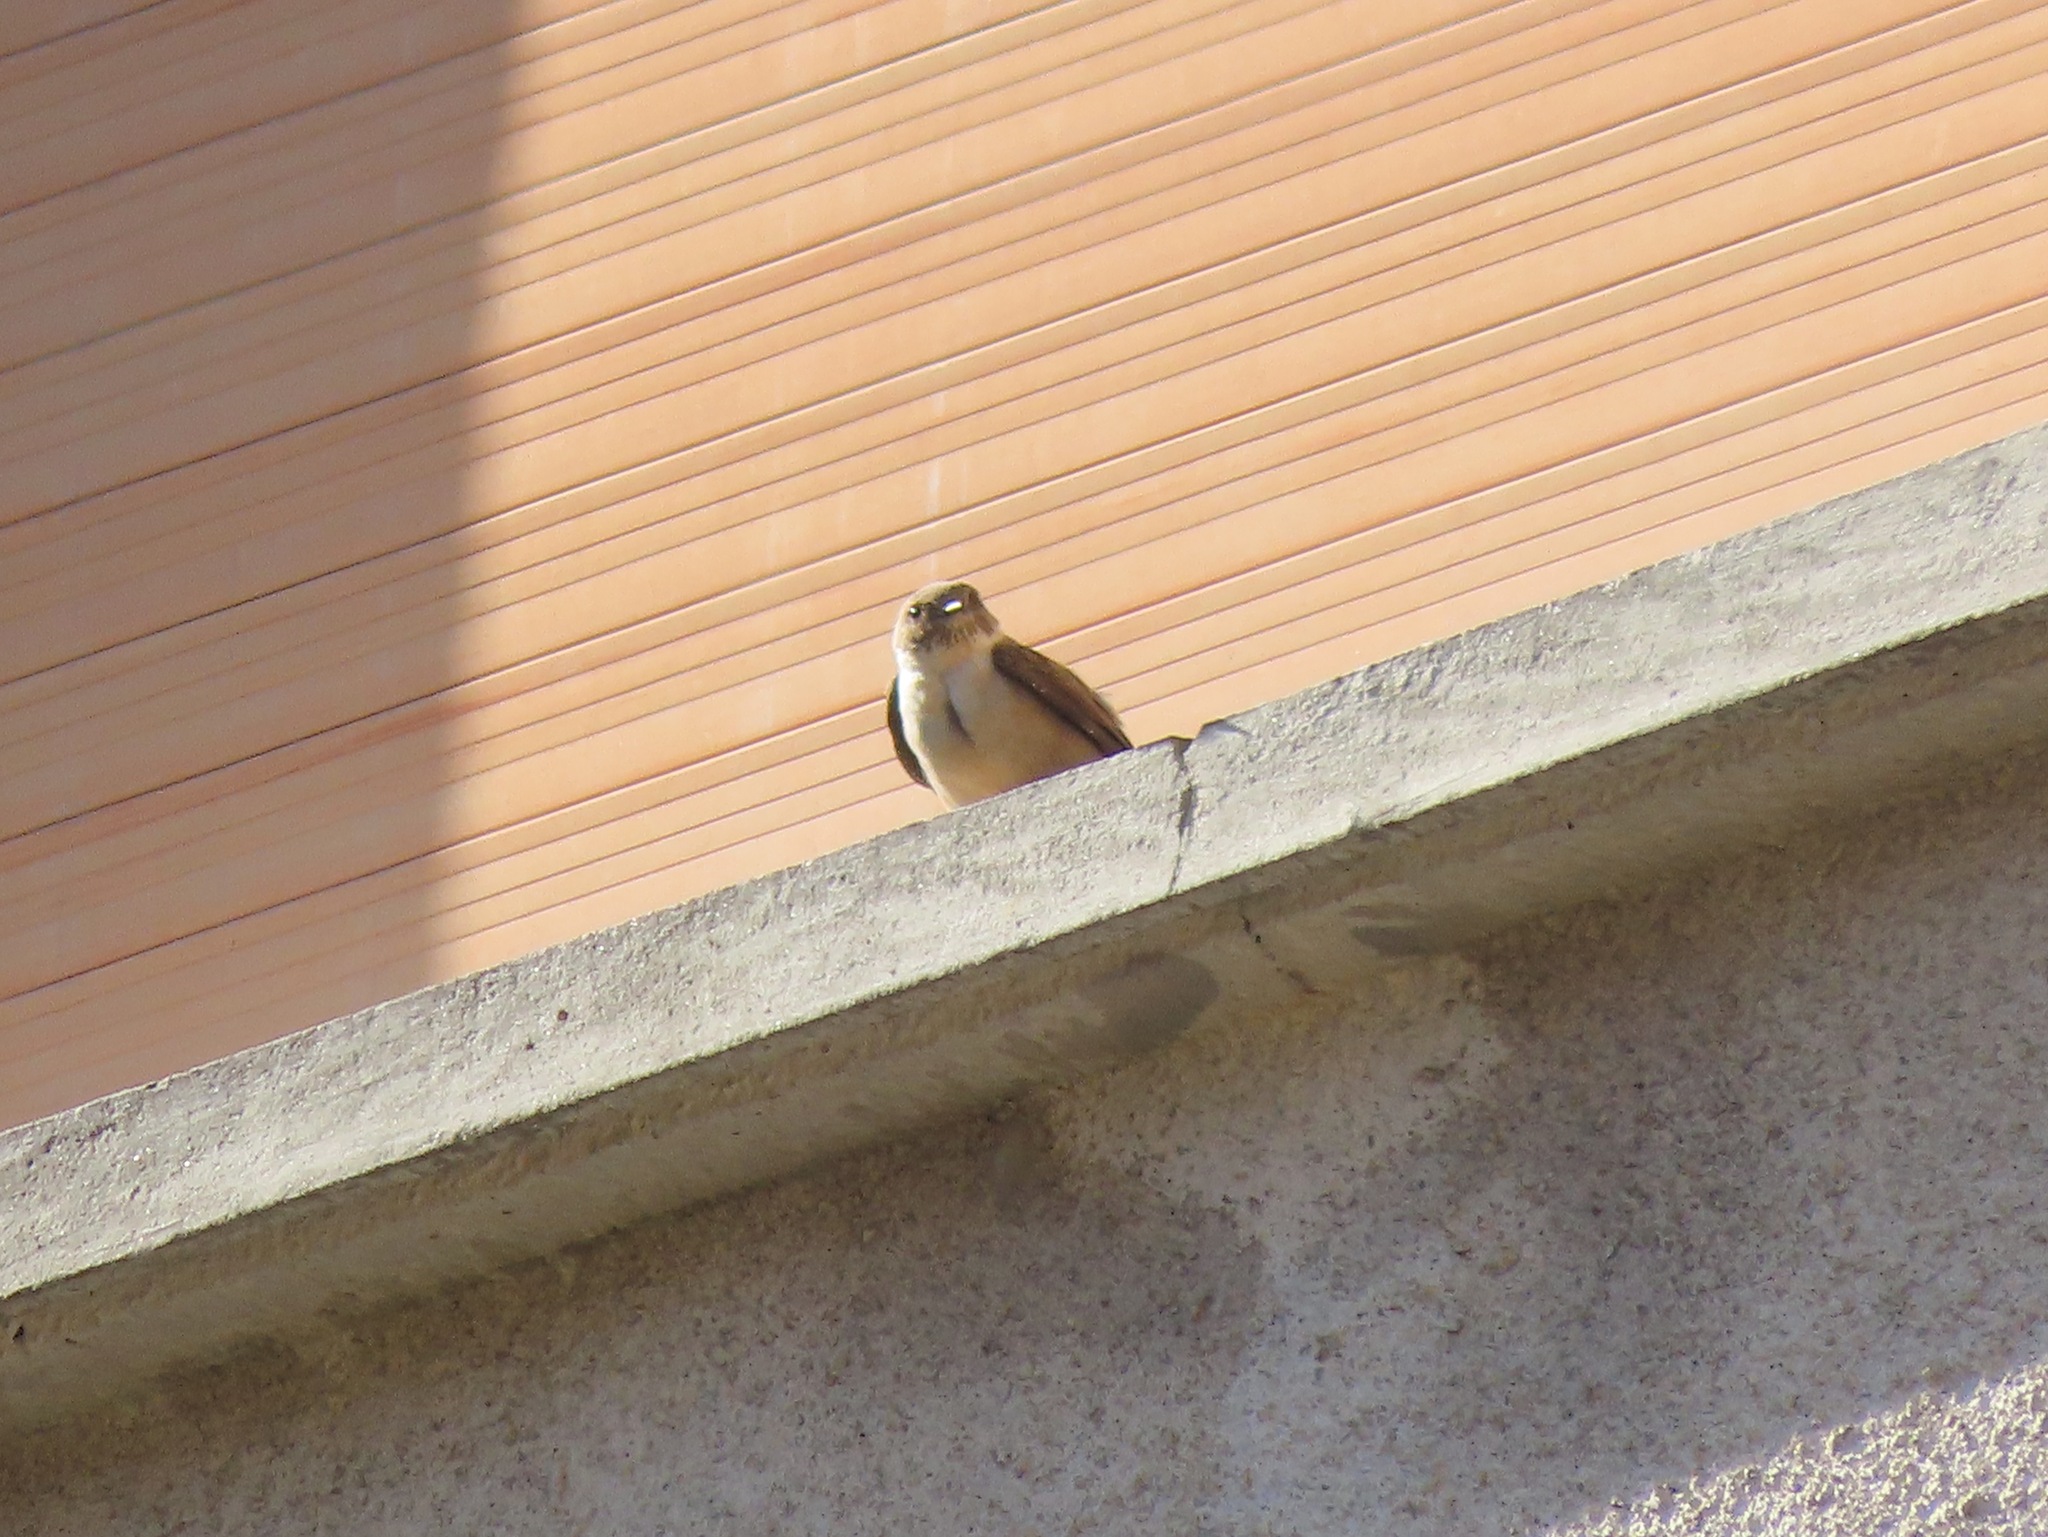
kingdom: Animalia
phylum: Chordata
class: Aves
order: Passeriformes
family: Hirundinidae
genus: Ptyonoprogne
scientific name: Ptyonoprogne rupestris
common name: Eurasian crag martin
